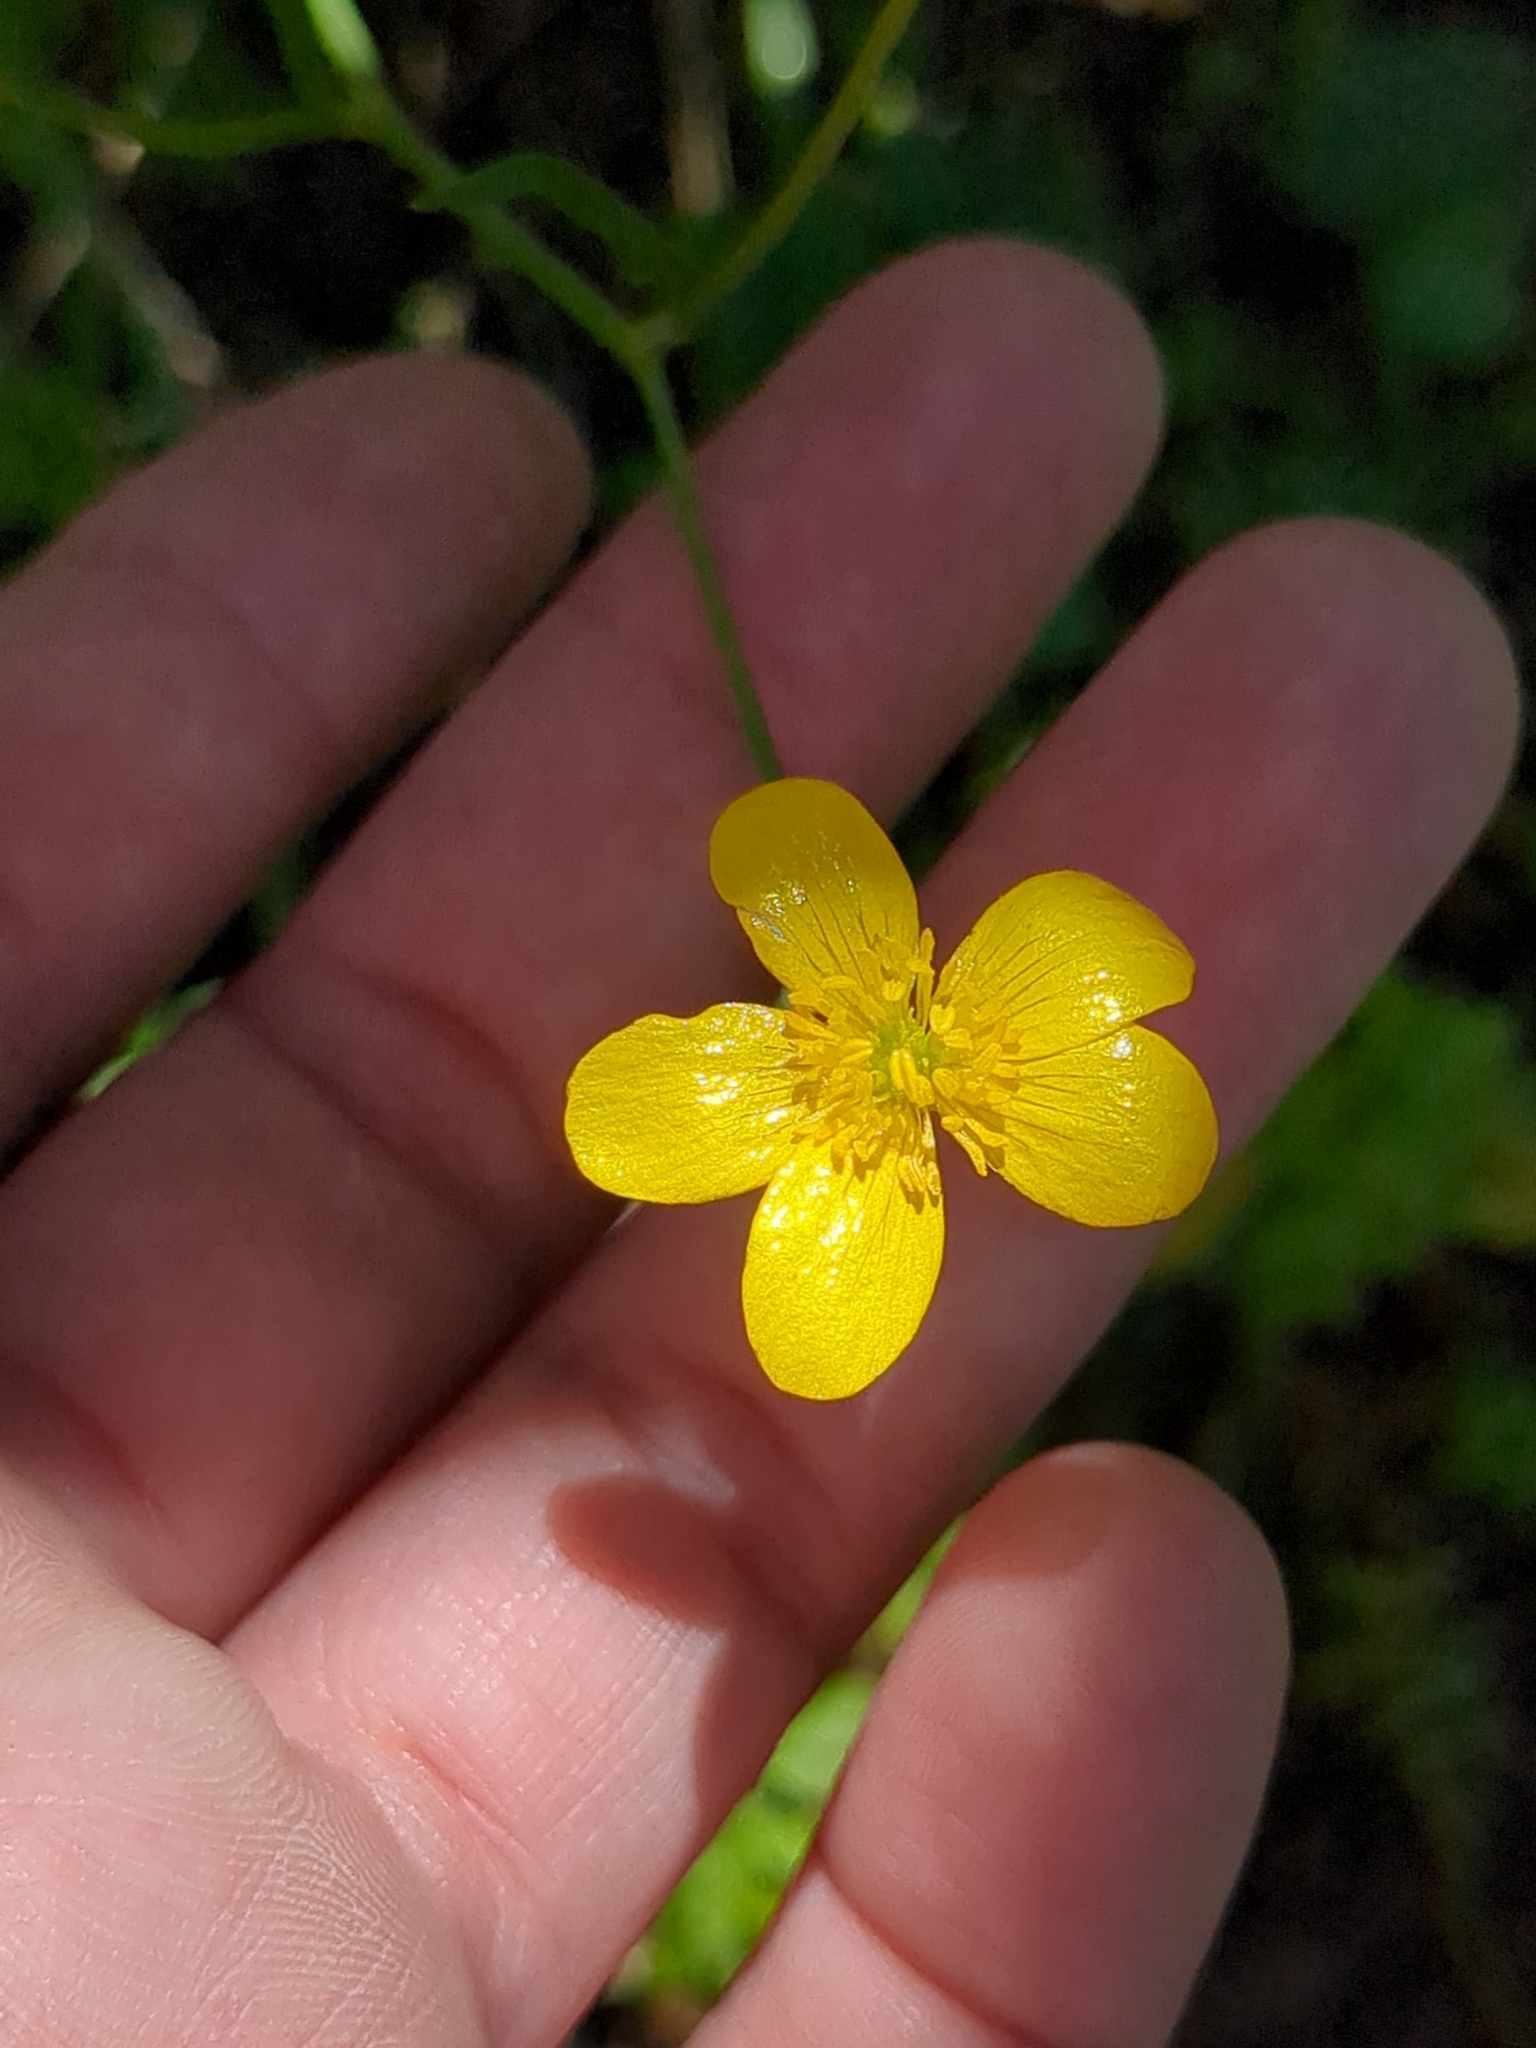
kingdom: Plantae
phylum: Tracheophyta
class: Magnoliopsida
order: Ranunculales
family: Ranunculaceae
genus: Ranunculus
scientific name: Ranunculus occidentalis
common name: Western buttercup
